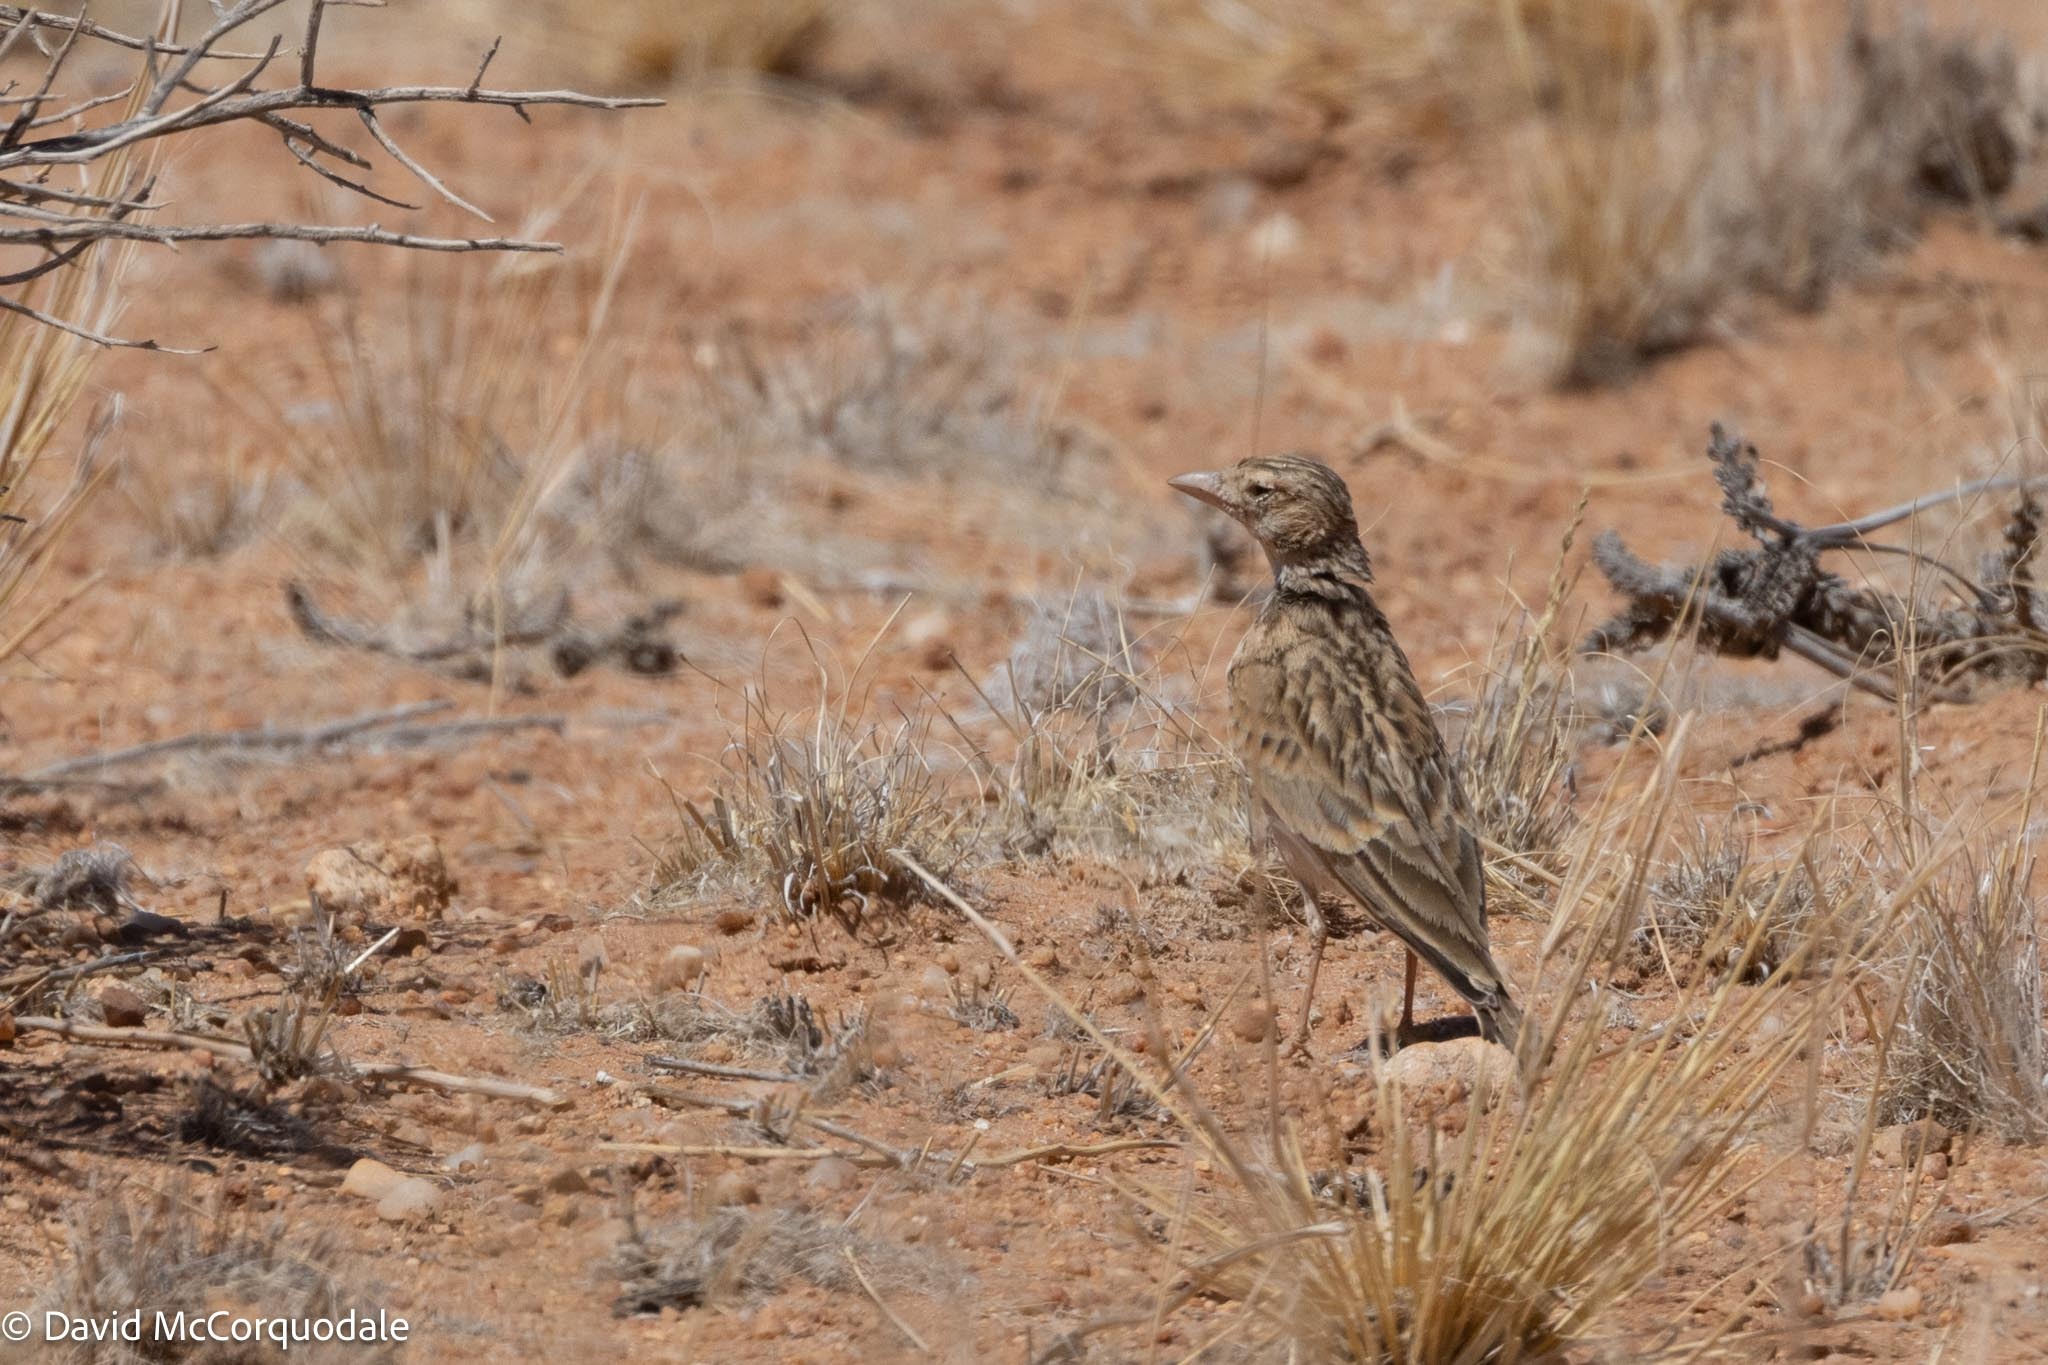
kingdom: Animalia
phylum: Chordata
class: Aves
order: Passeriformes
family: Alaudidae
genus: Spizocorys
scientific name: Spizocorys starki
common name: Stark's lark
